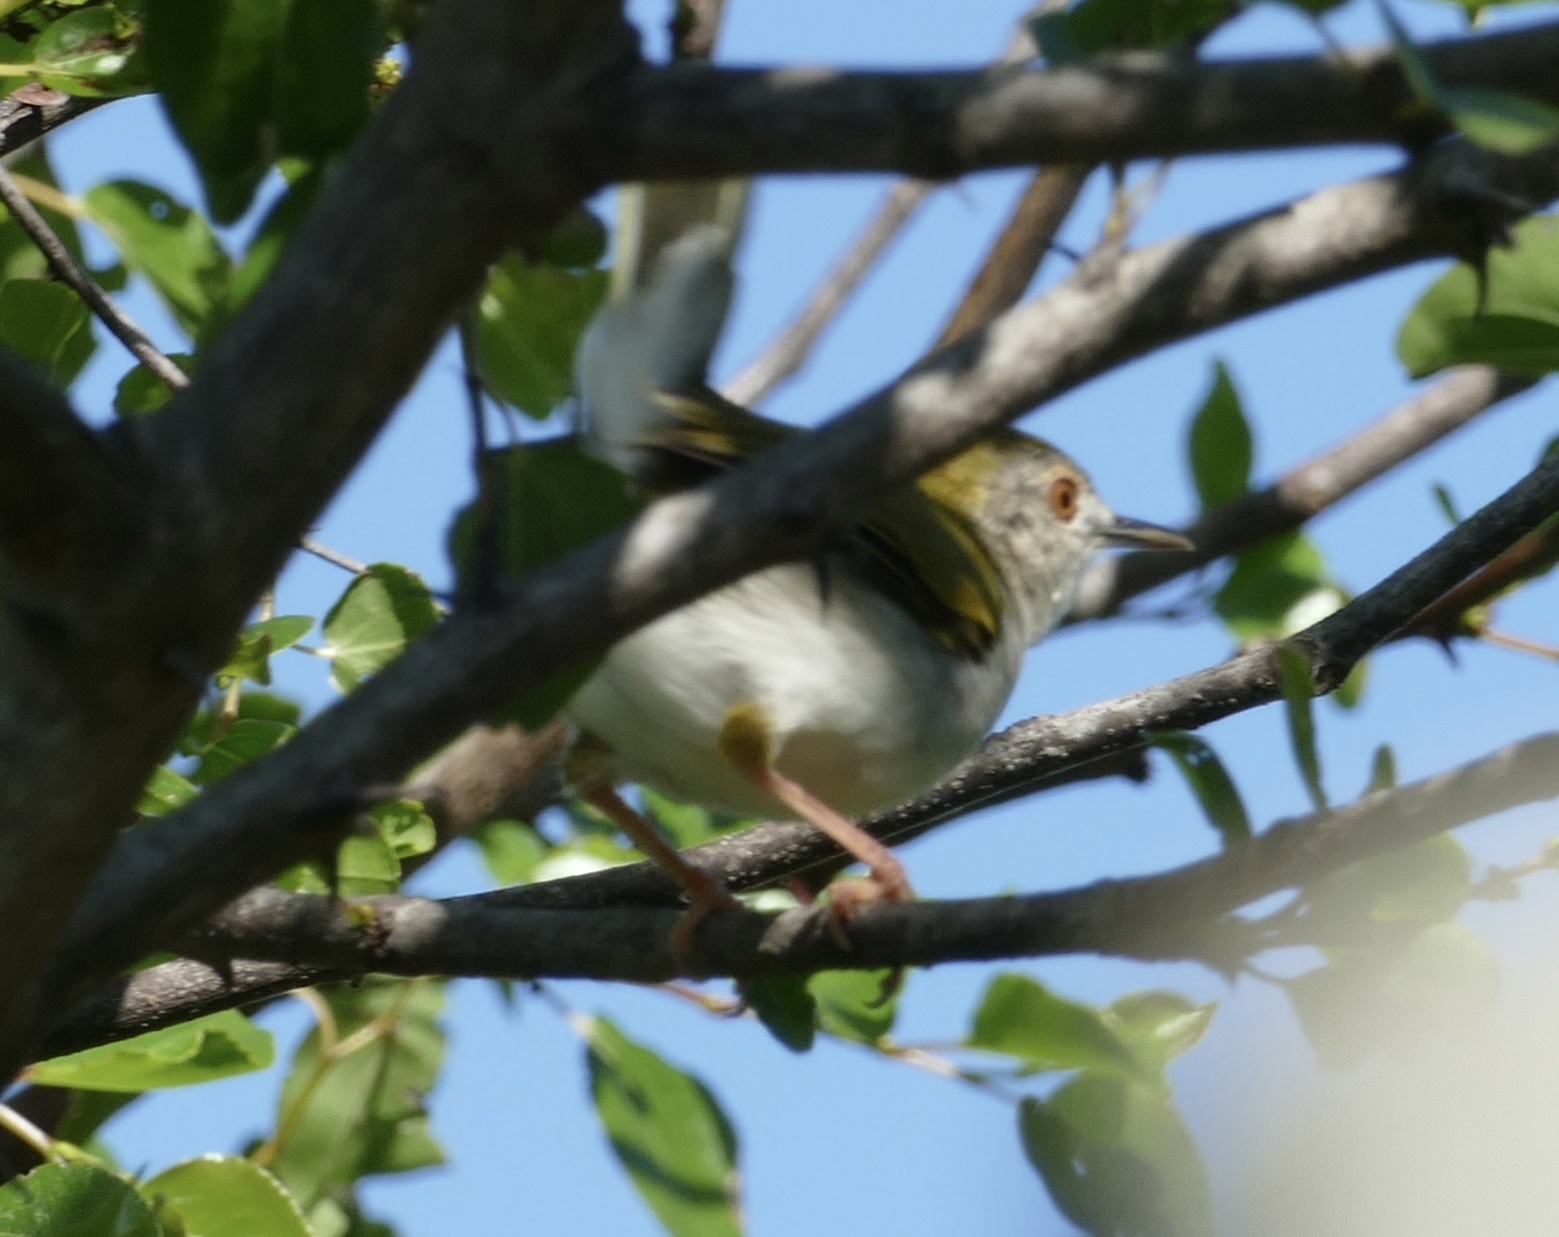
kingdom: Animalia
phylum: Chordata
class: Aves
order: Passeriformes
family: Cisticolidae
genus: Camaroptera
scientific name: Camaroptera brachyura
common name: Green-backed camaroptera
